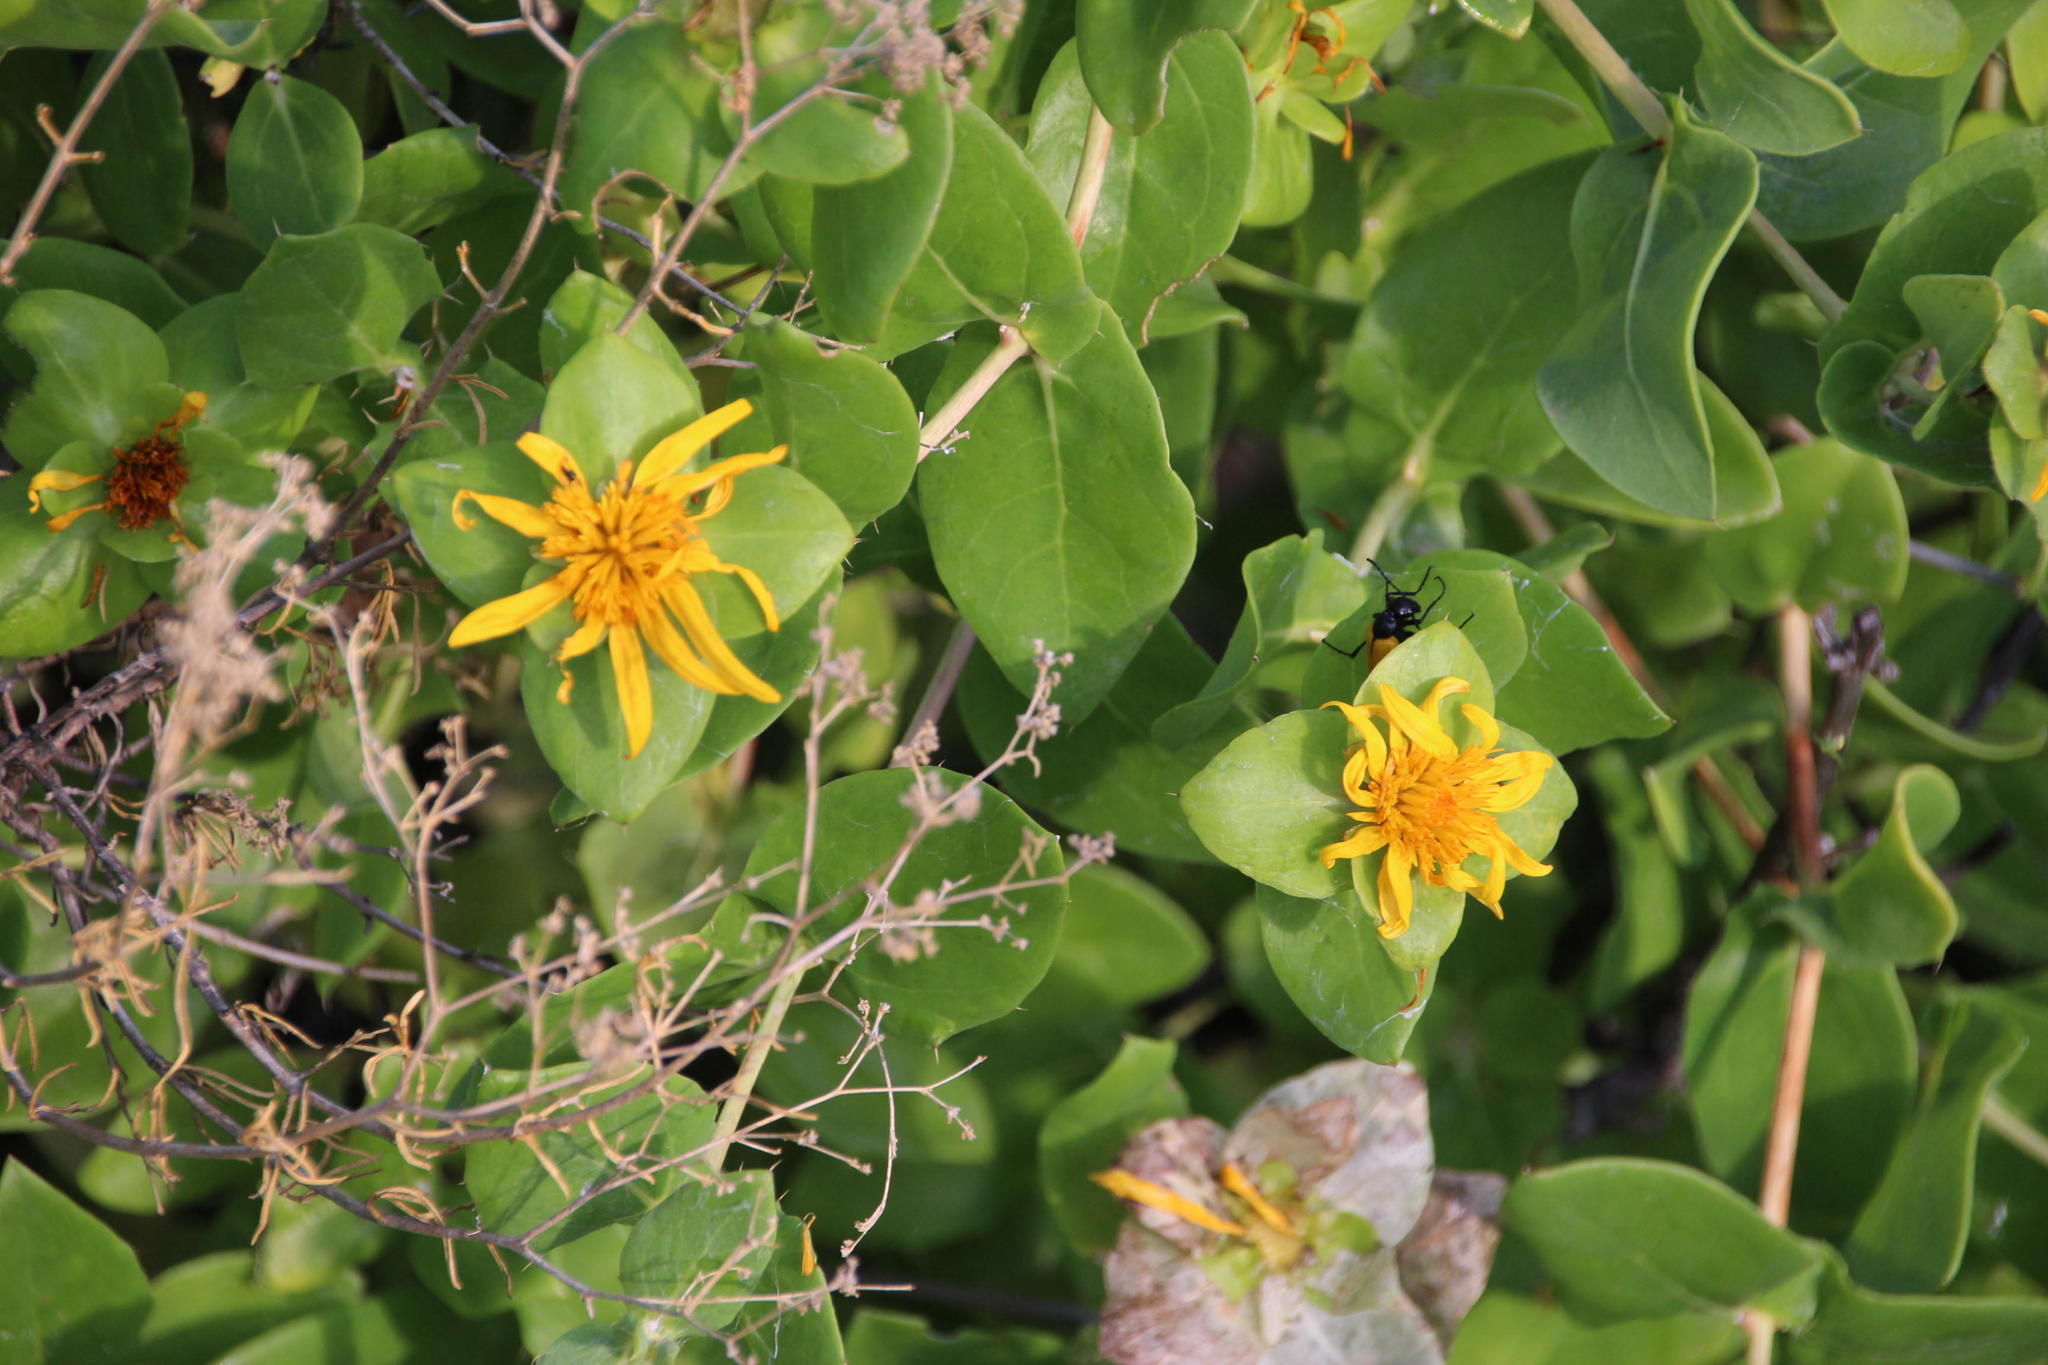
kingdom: Plantae
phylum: Tracheophyta
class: Magnoliopsida
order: Asterales
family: Asteraceae
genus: Didelta
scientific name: Didelta spinosa
